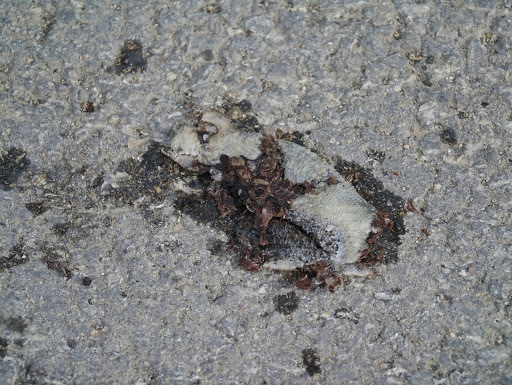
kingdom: Animalia
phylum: Chordata
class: Squamata
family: Scincidae
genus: Chalcides
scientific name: Chalcides ocellatus
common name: Ocellated skink
